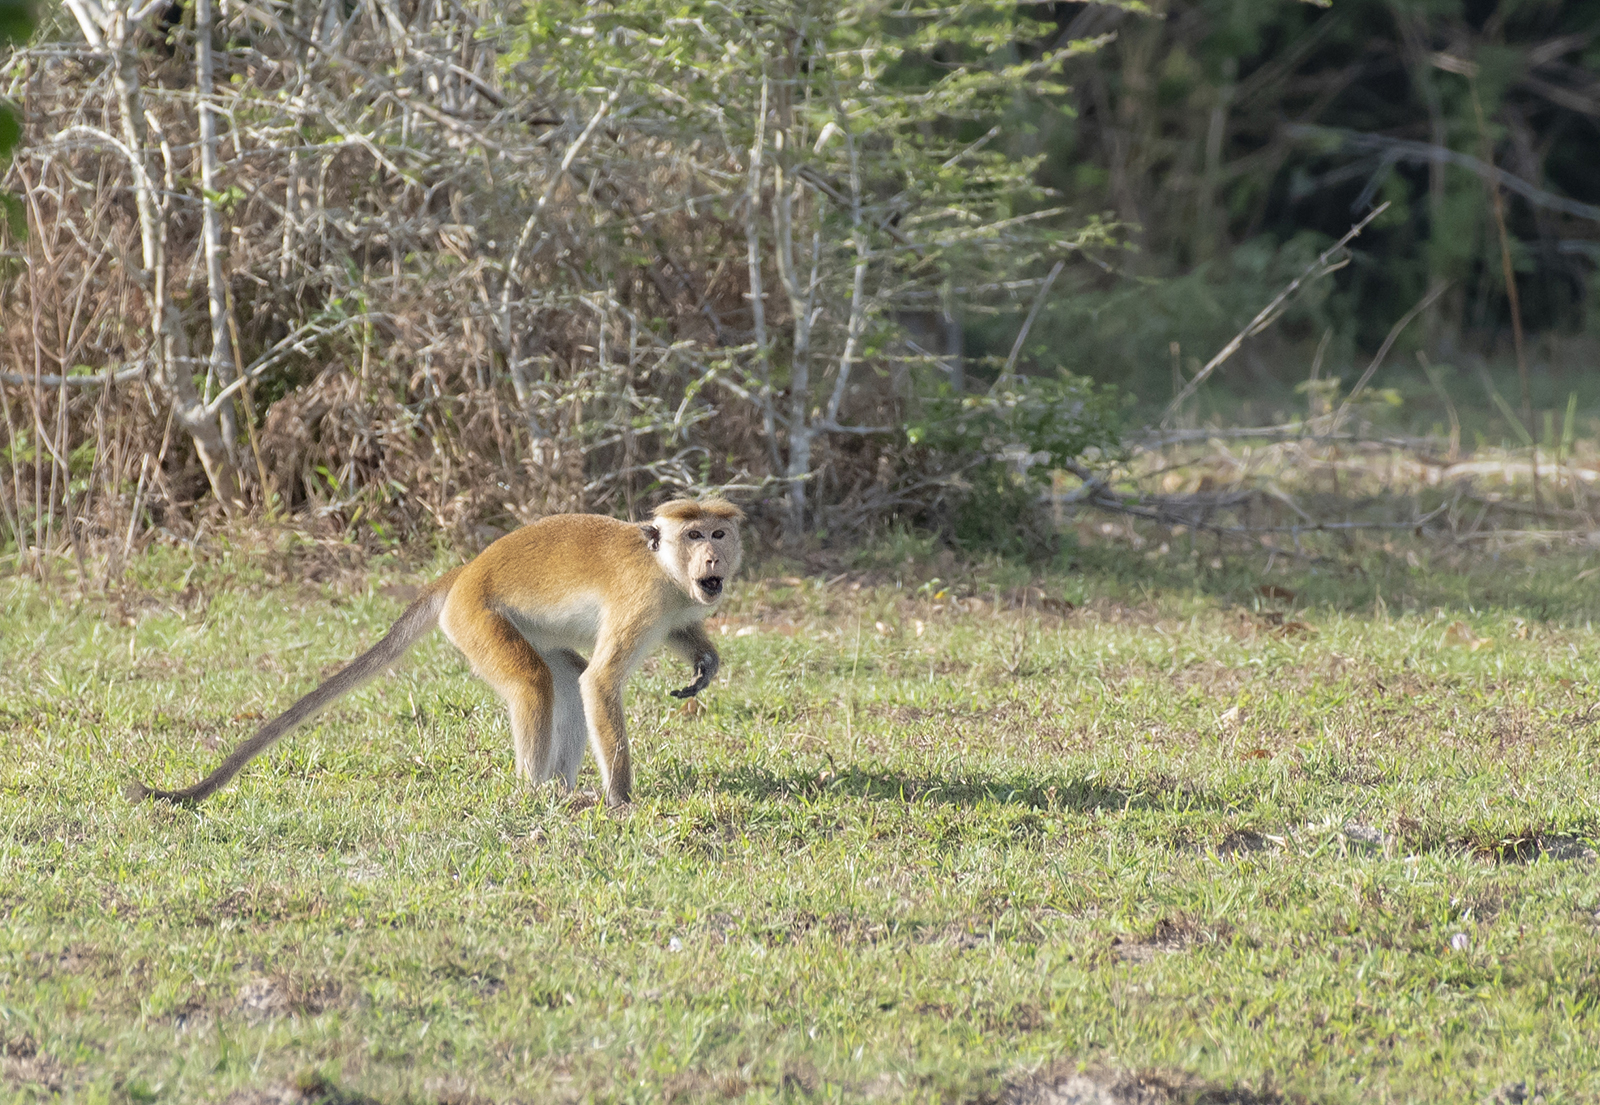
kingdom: Animalia
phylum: Chordata
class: Mammalia
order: Primates
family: Cercopithecidae
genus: Macaca
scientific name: Macaca sinica
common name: Toque macaque
